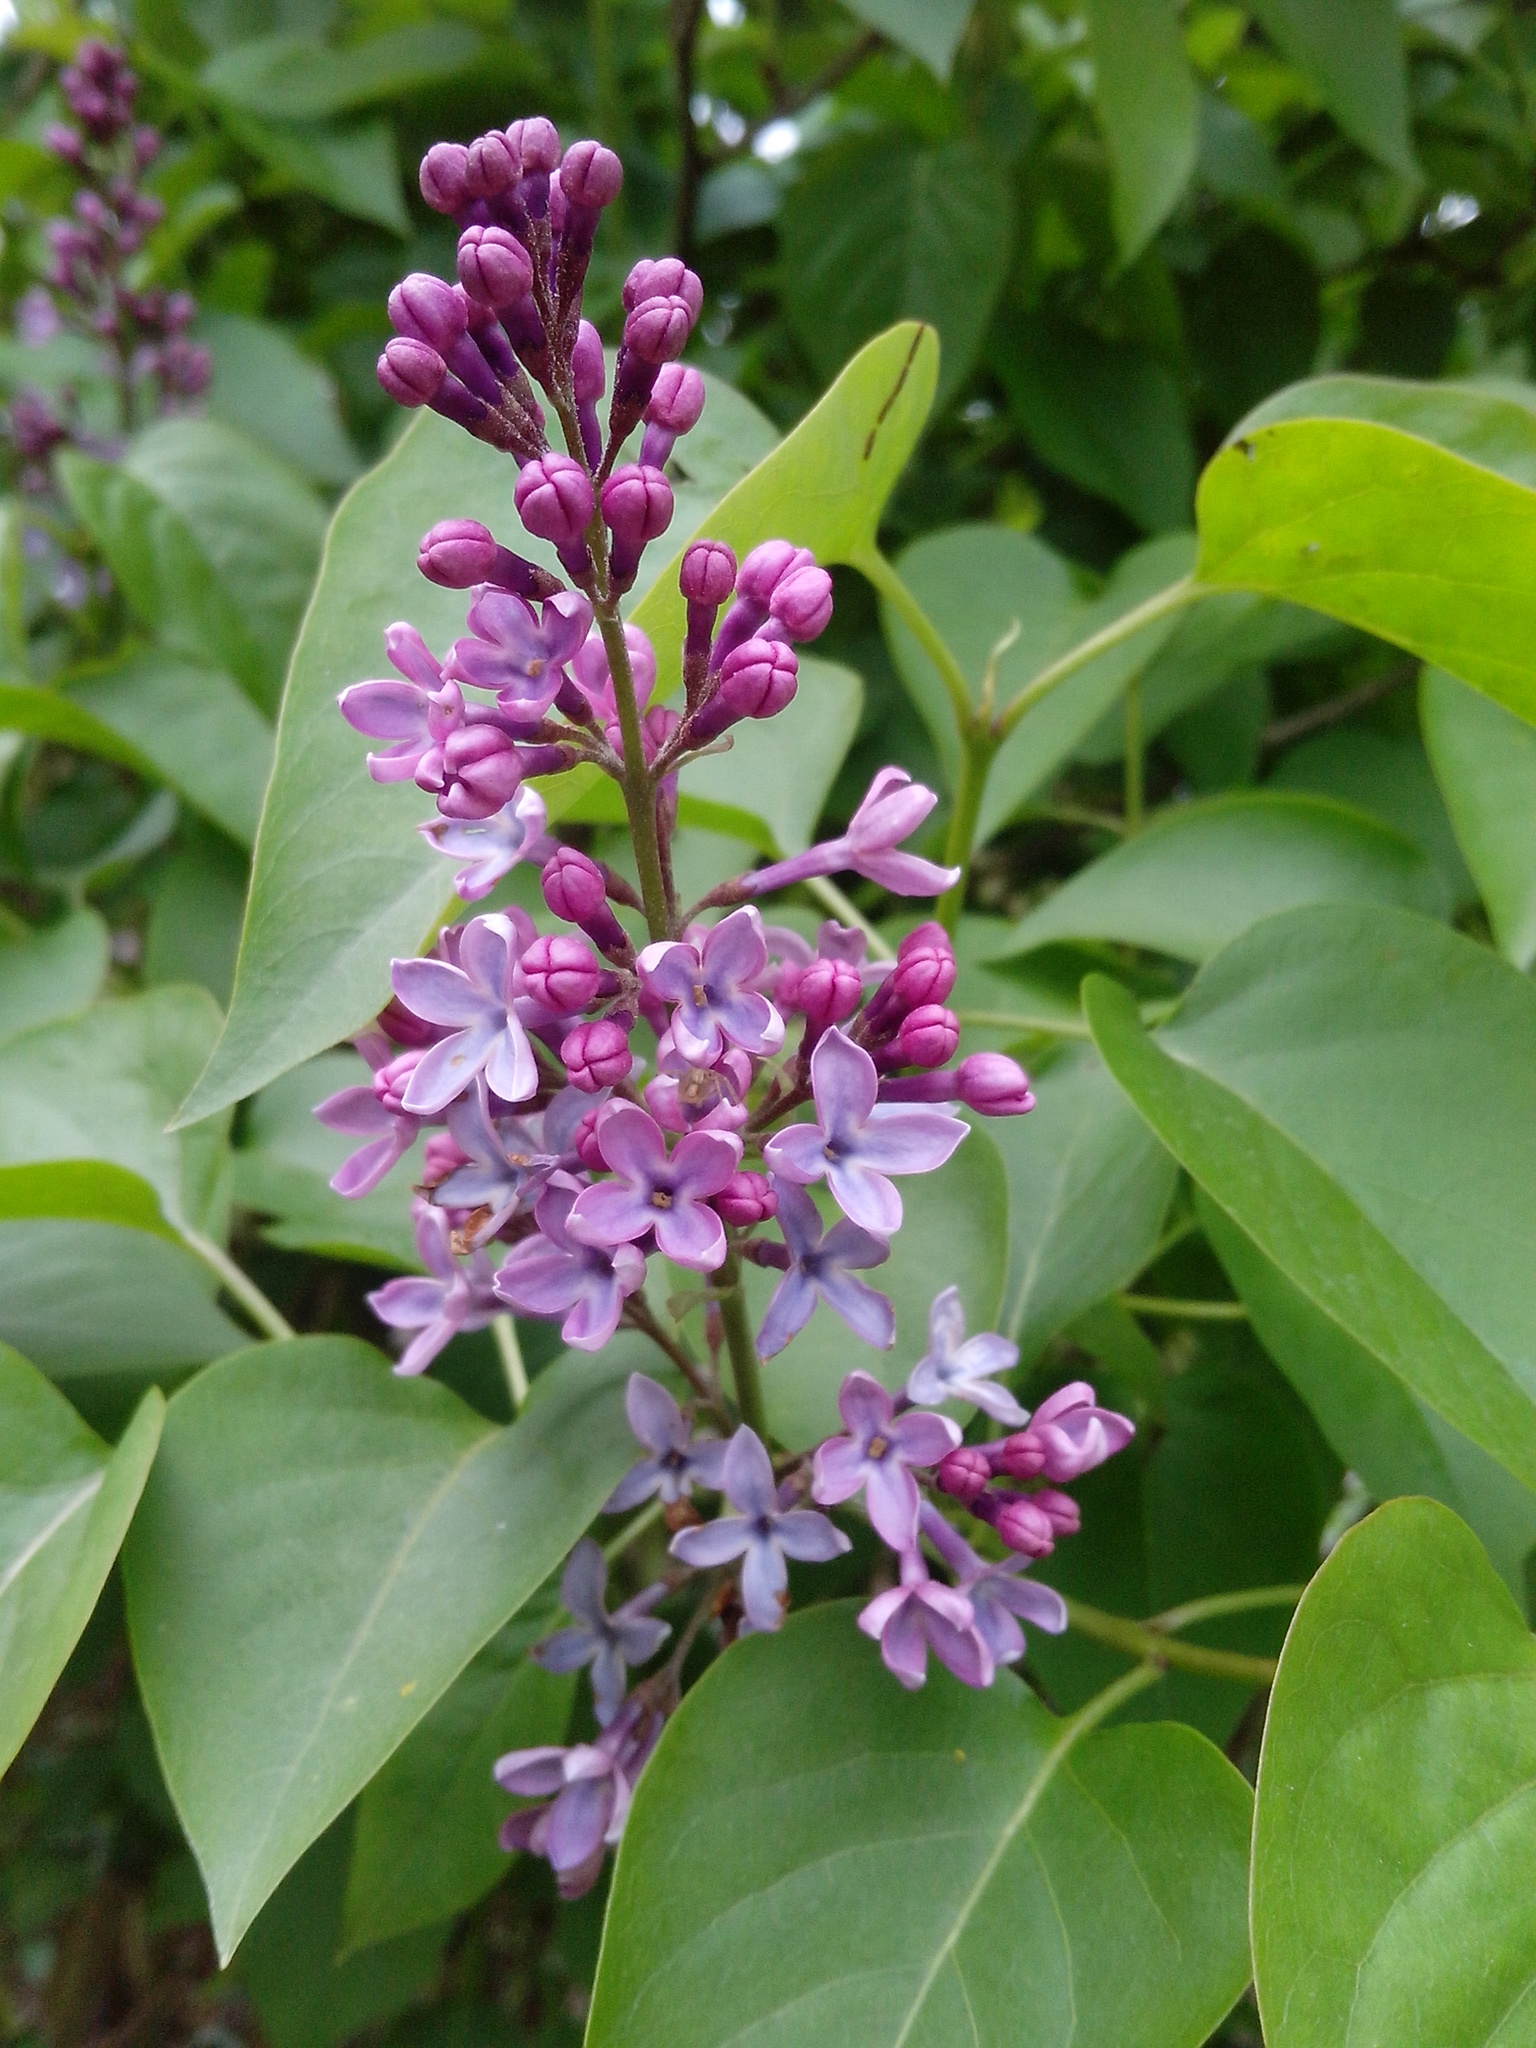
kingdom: Plantae
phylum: Tracheophyta
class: Magnoliopsida
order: Lamiales
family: Oleaceae
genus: Syringa
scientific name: Syringa vulgaris
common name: Common lilac
